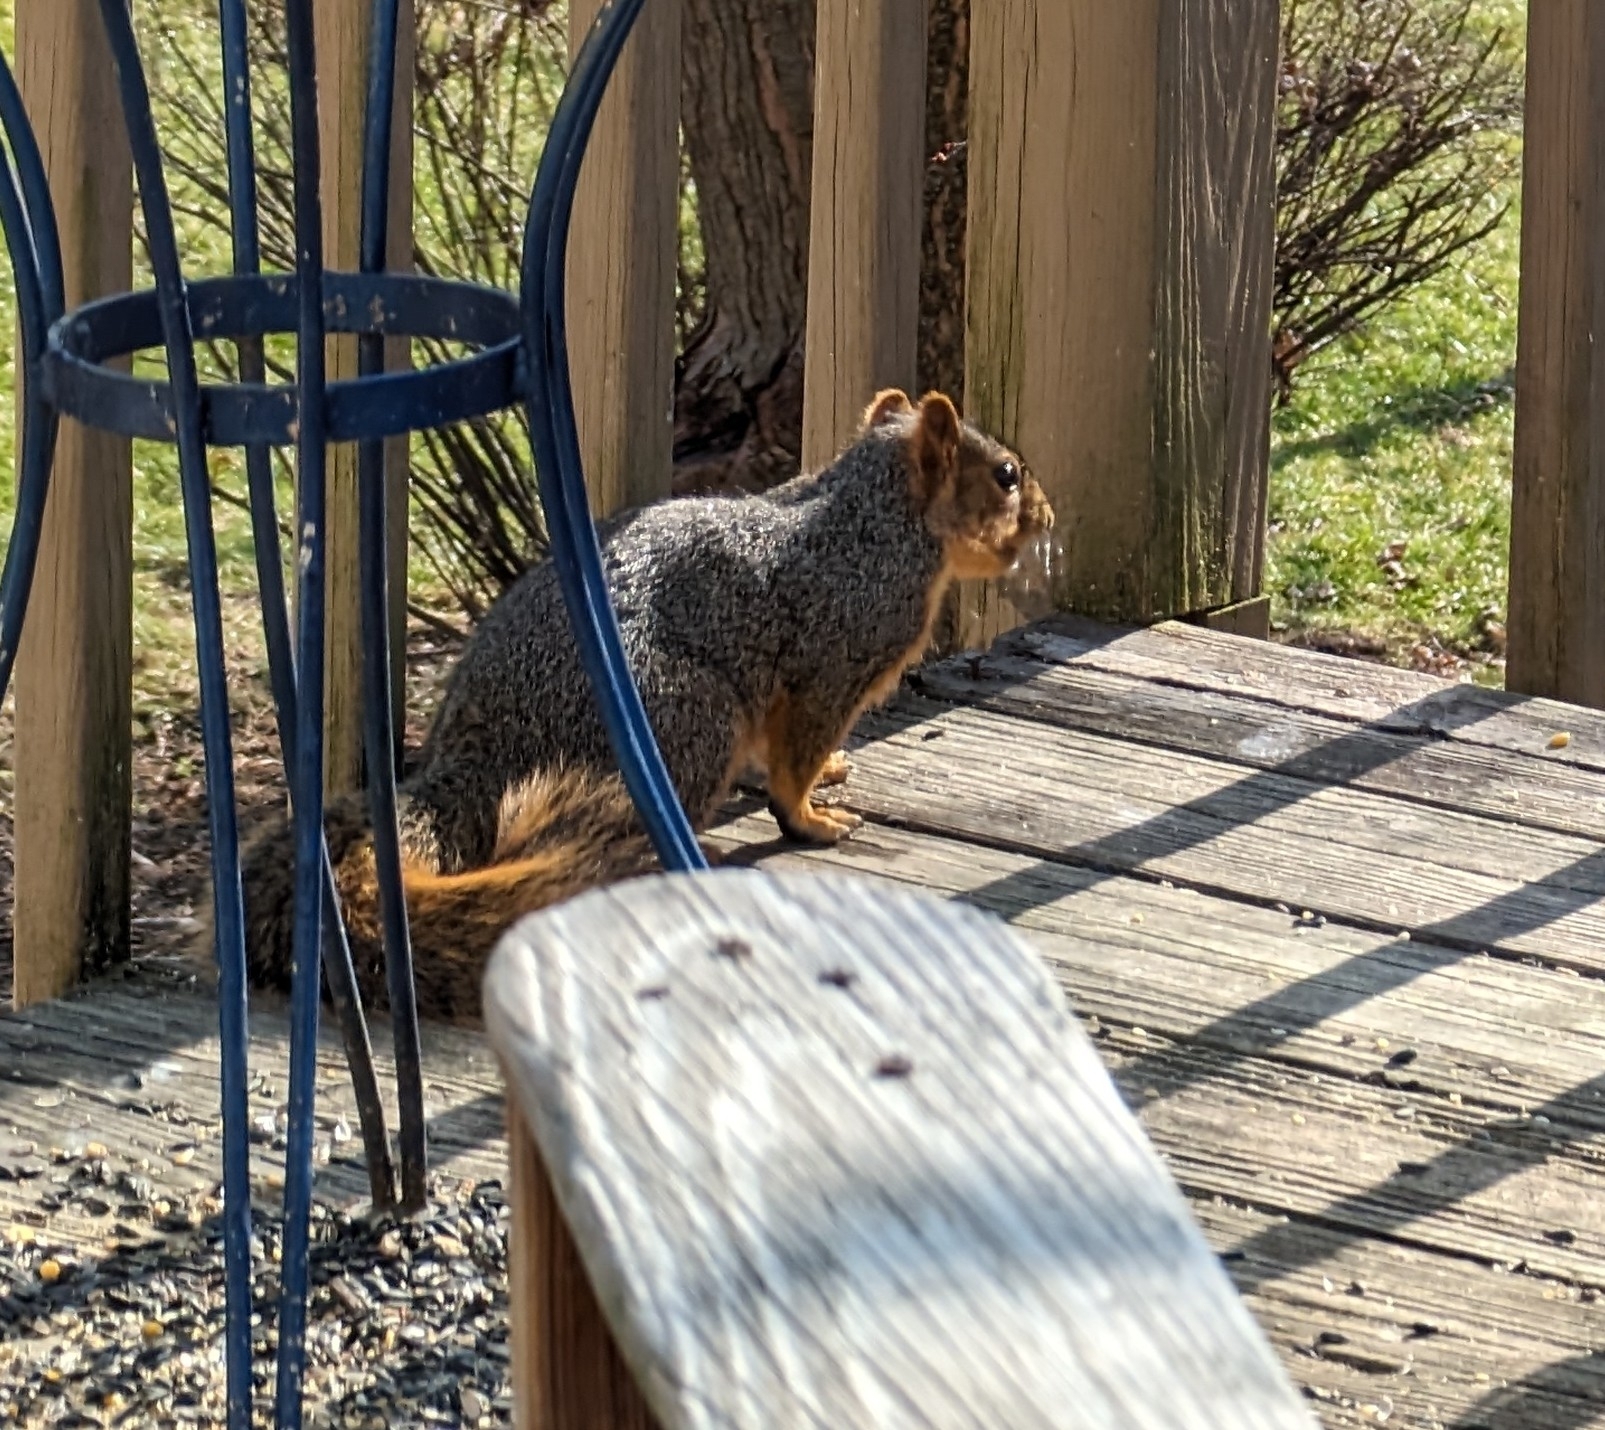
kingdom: Animalia
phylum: Chordata
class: Mammalia
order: Rodentia
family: Sciuridae
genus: Sciurus
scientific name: Sciurus niger
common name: Fox squirrel
